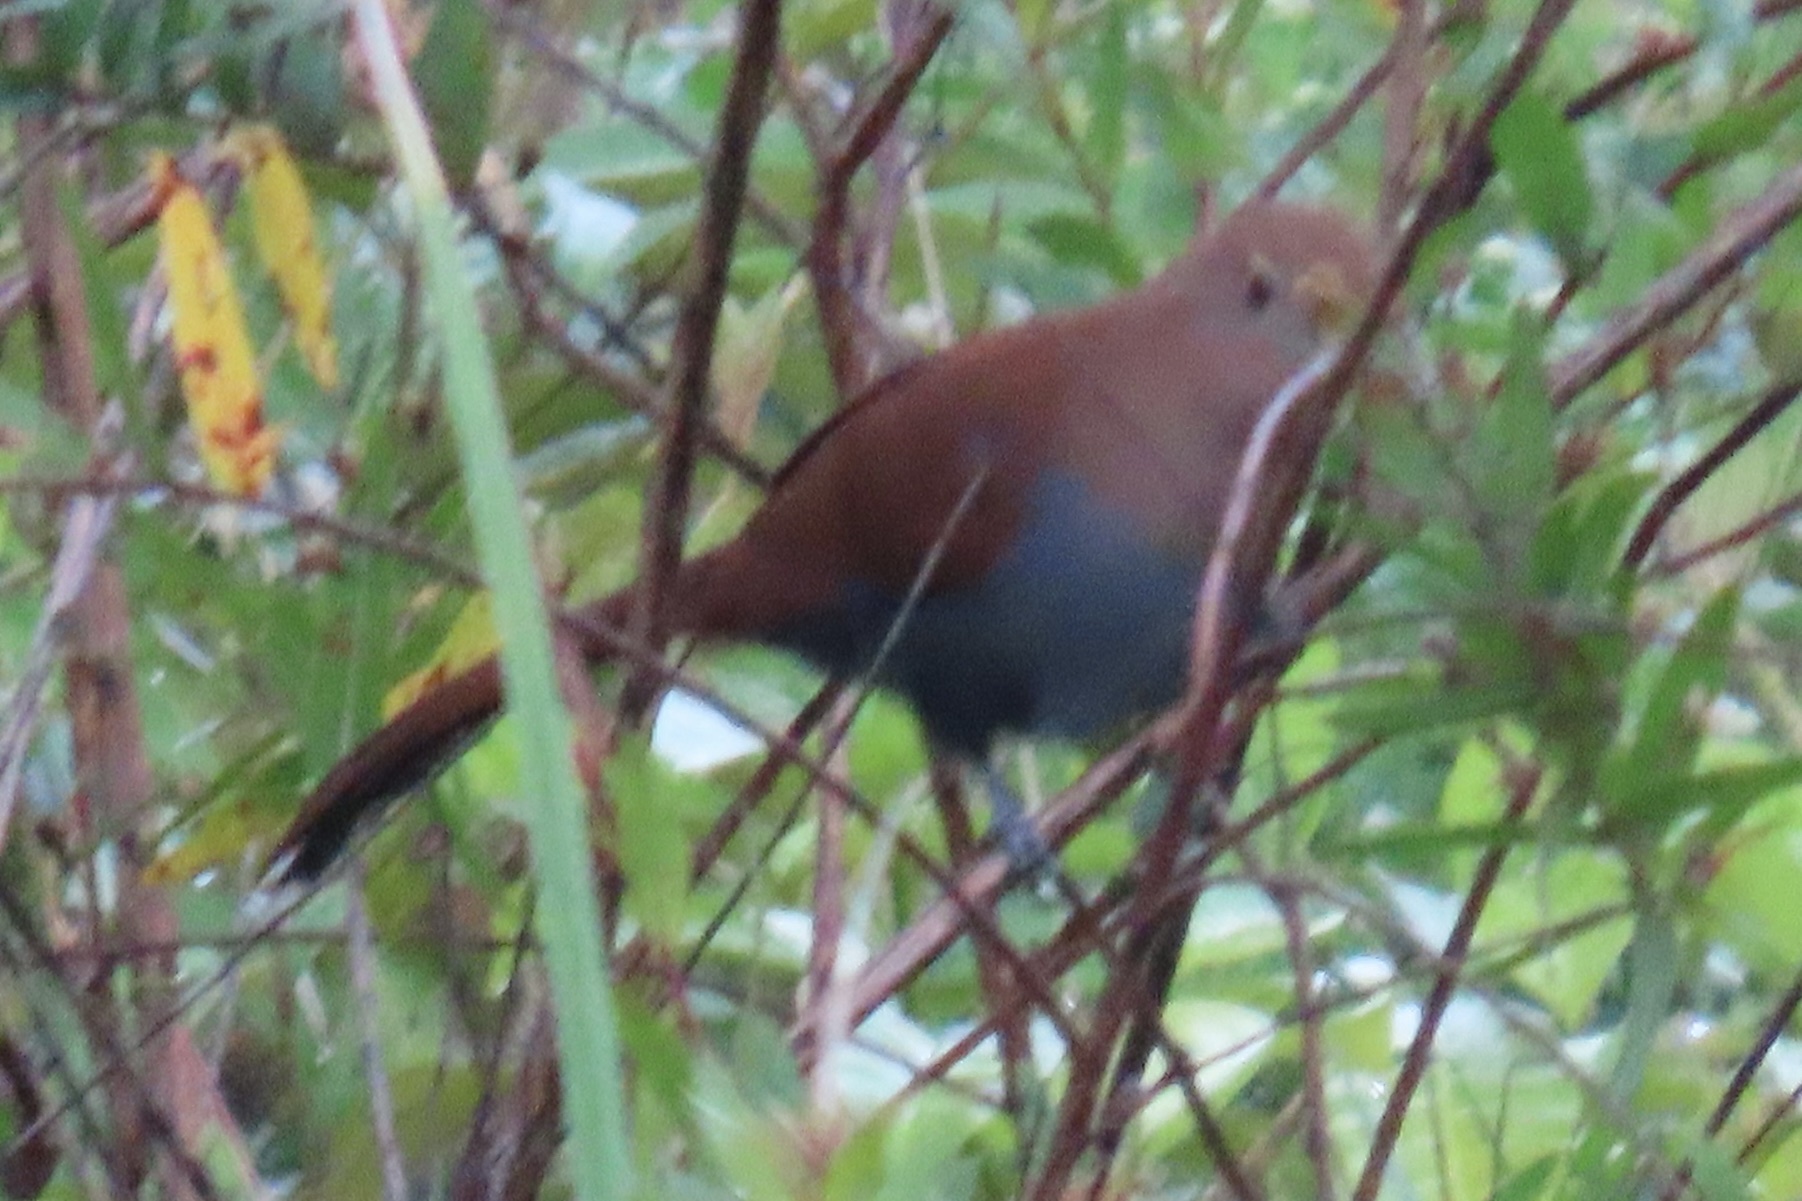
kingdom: Animalia
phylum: Chordata
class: Aves
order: Cuculiformes
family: Cuculidae
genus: Piaya
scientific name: Piaya cayana
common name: Squirrel cuckoo
